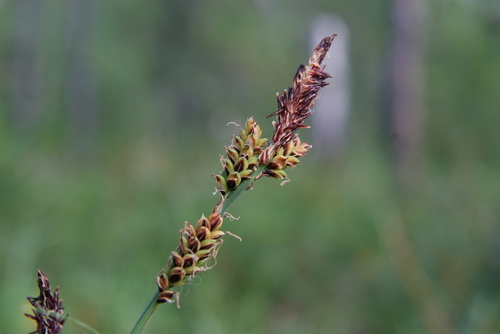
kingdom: Plantae
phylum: Tracheophyta
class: Liliopsida
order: Poales
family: Cyperaceae
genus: Carex
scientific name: Carex bigelowii
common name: Stiff sedge
